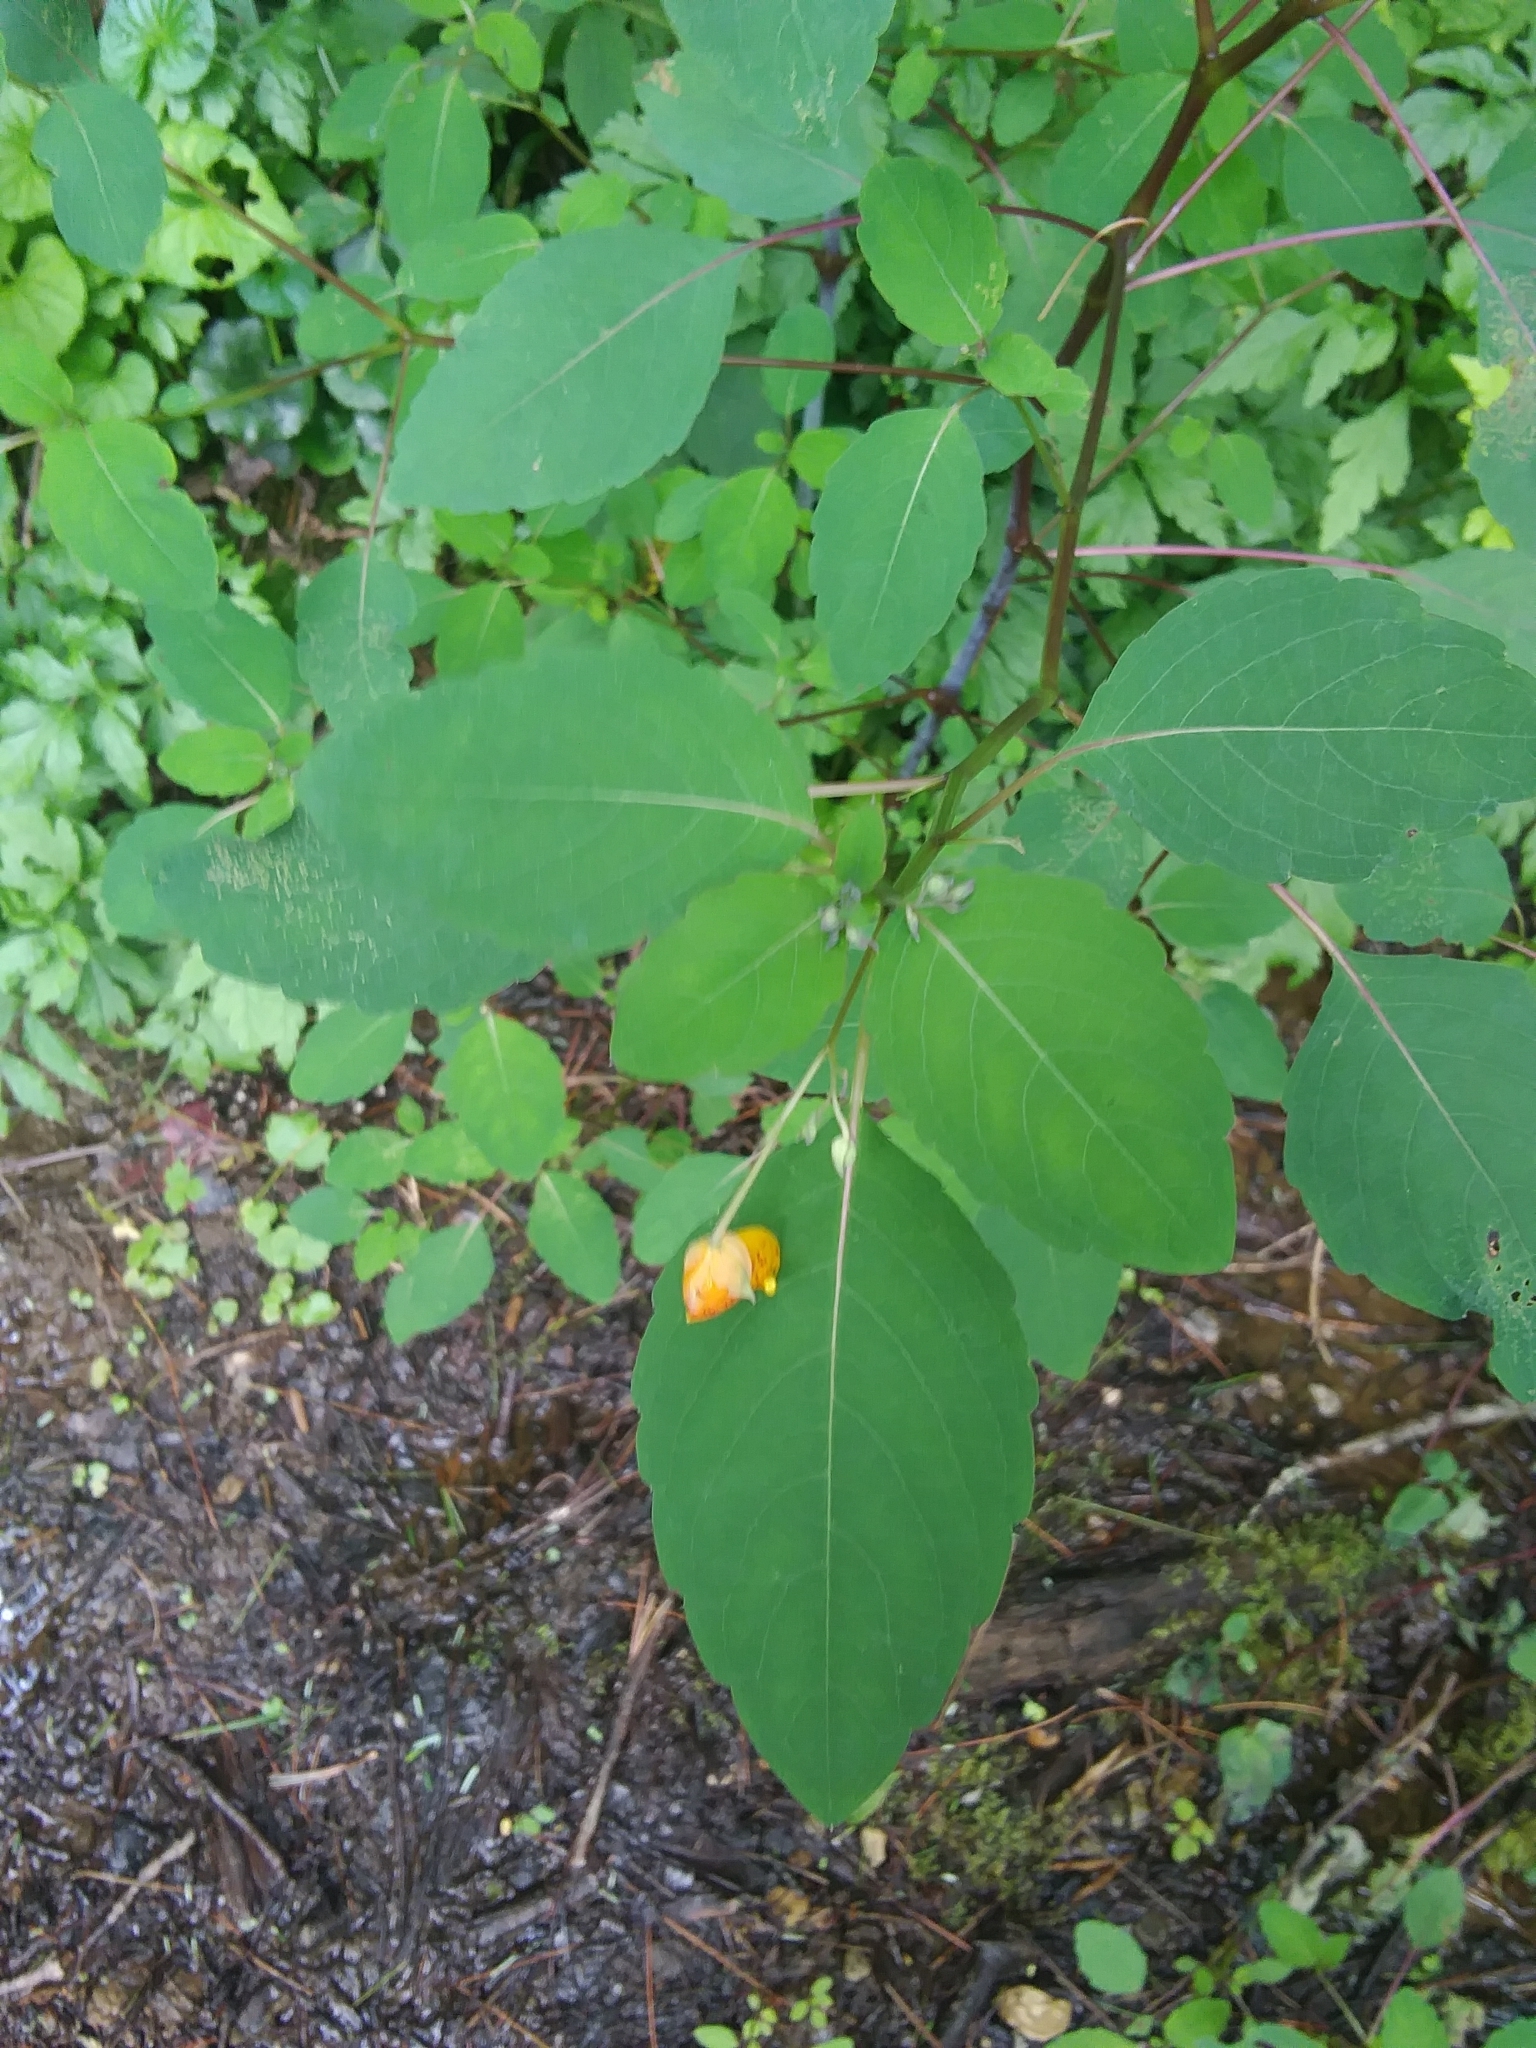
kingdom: Plantae
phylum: Tracheophyta
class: Magnoliopsida
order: Ericales
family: Balsaminaceae
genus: Impatiens
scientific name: Impatiens capensis
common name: Orange balsam
